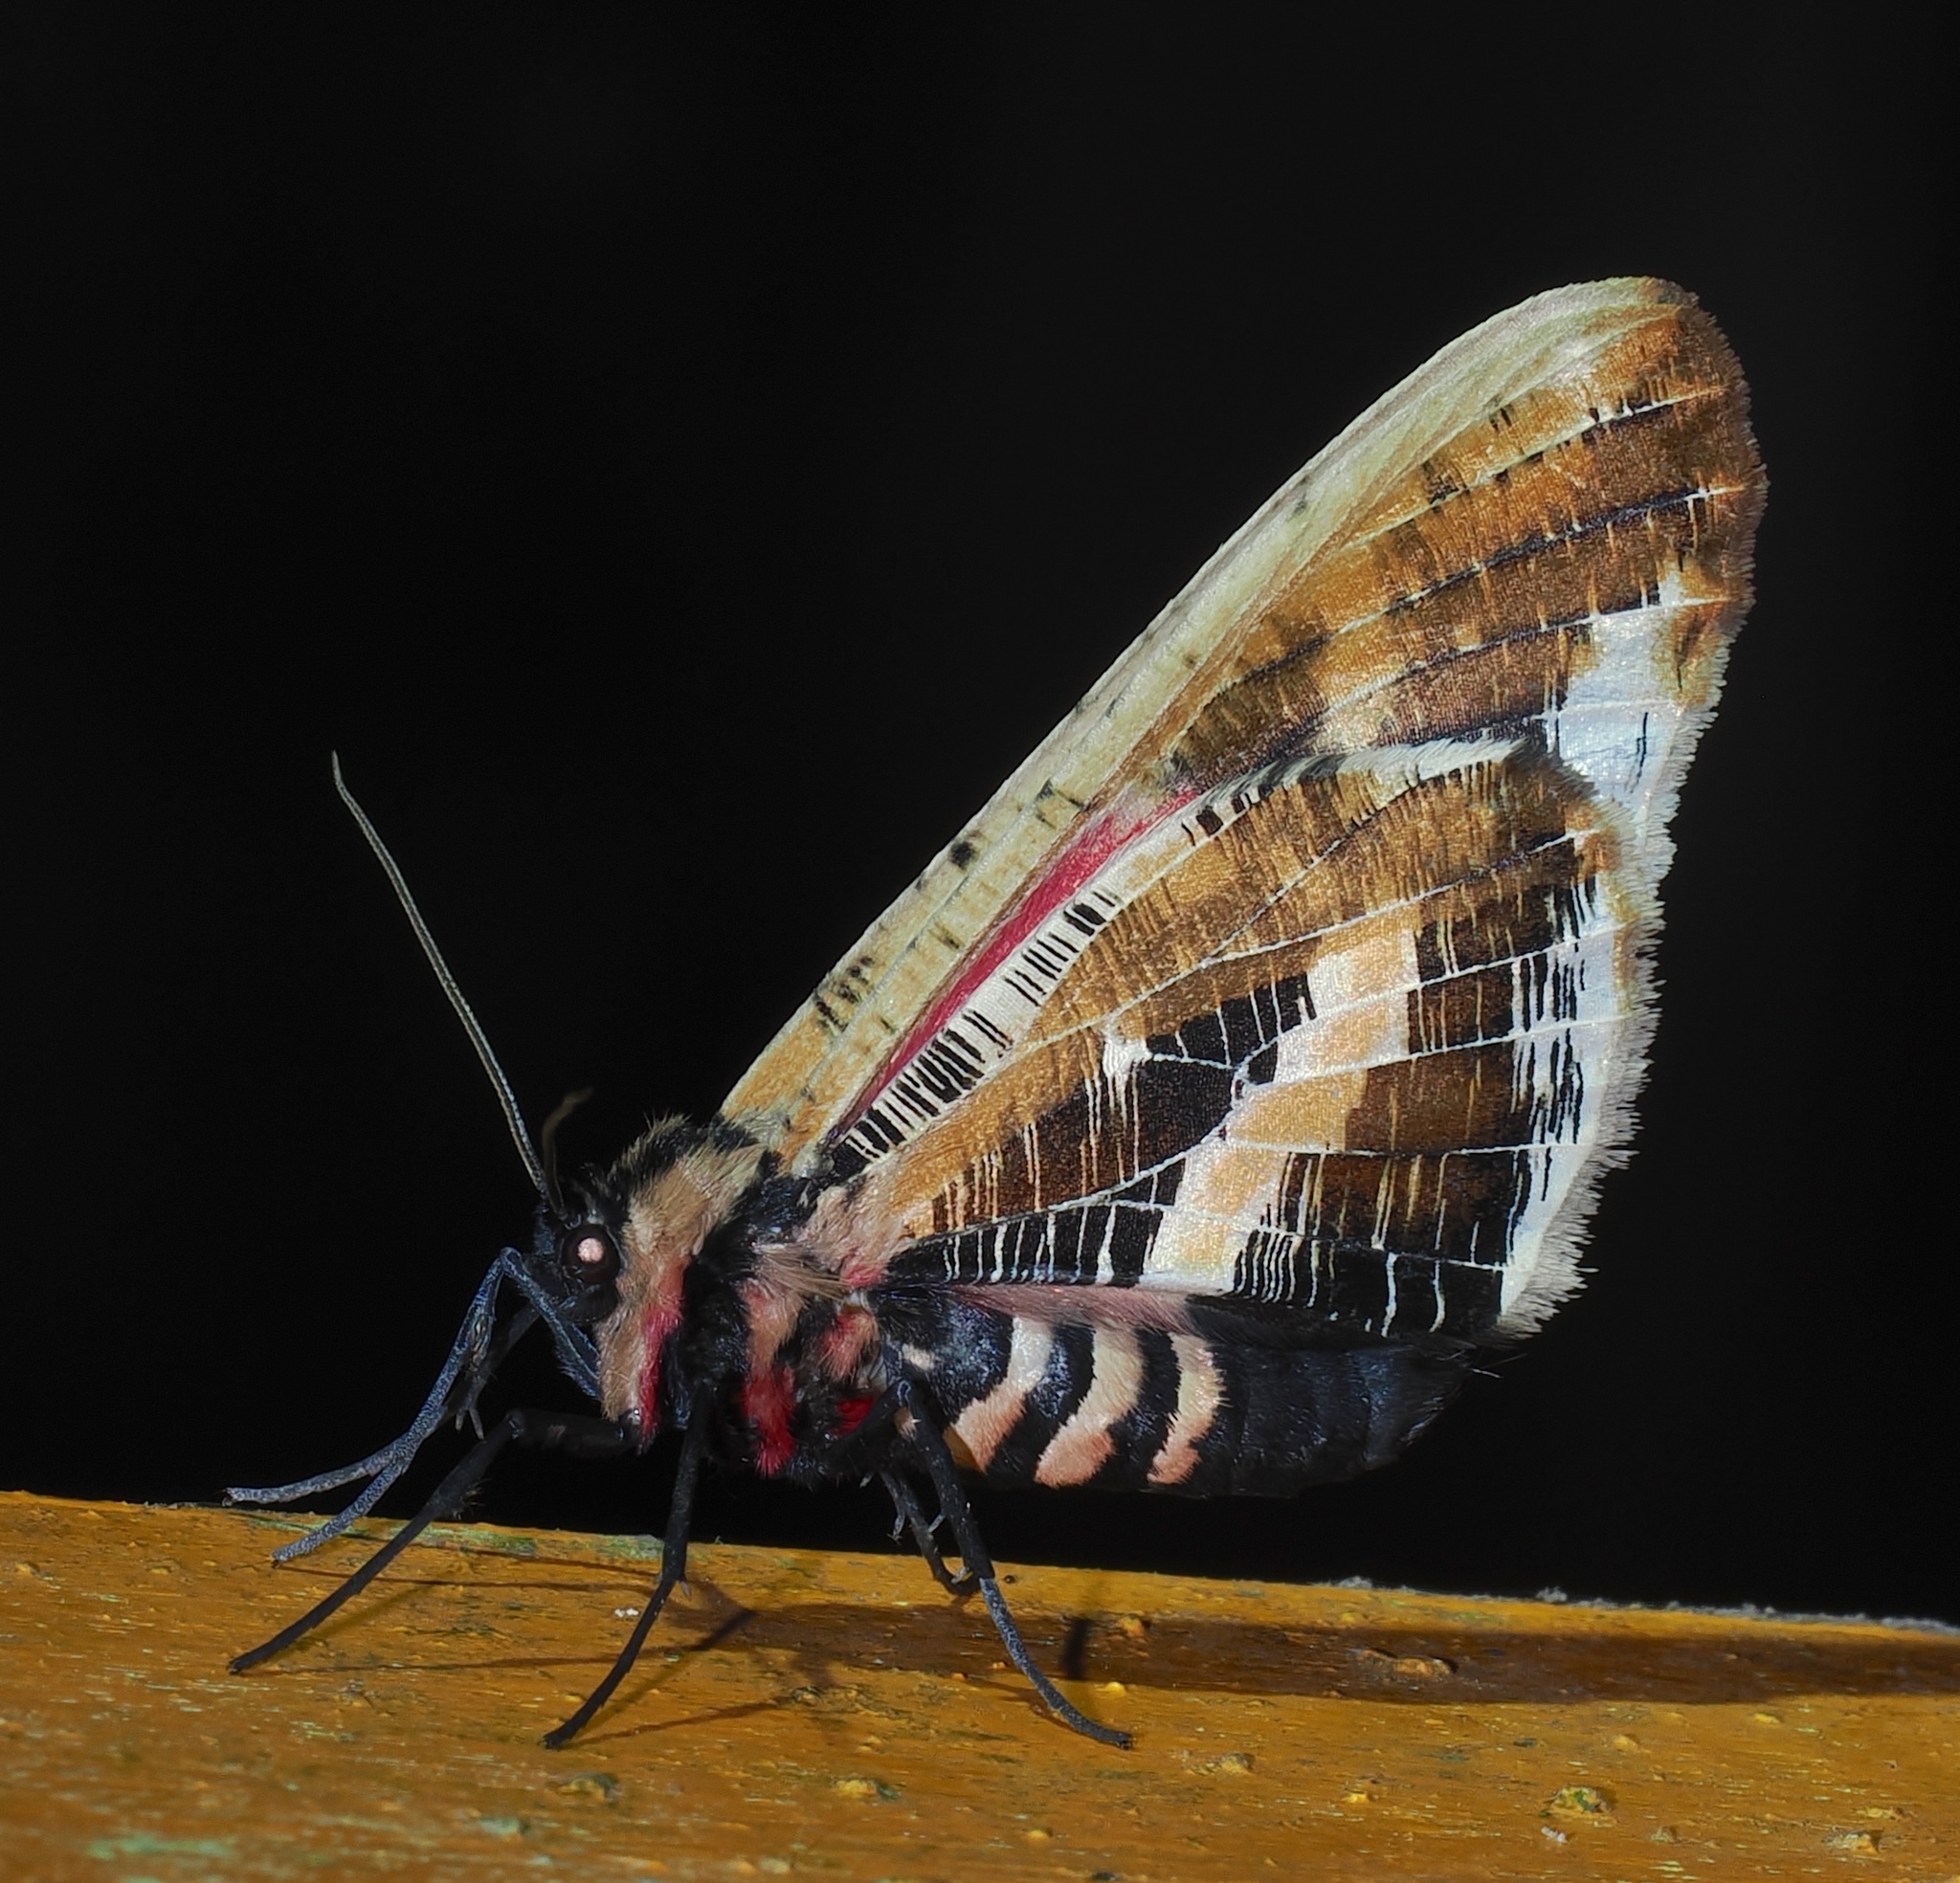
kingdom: Animalia
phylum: Arthropoda
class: Insecta
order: Lepidoptera
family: Geometridae
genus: Callipia
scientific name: Callipia milleri
